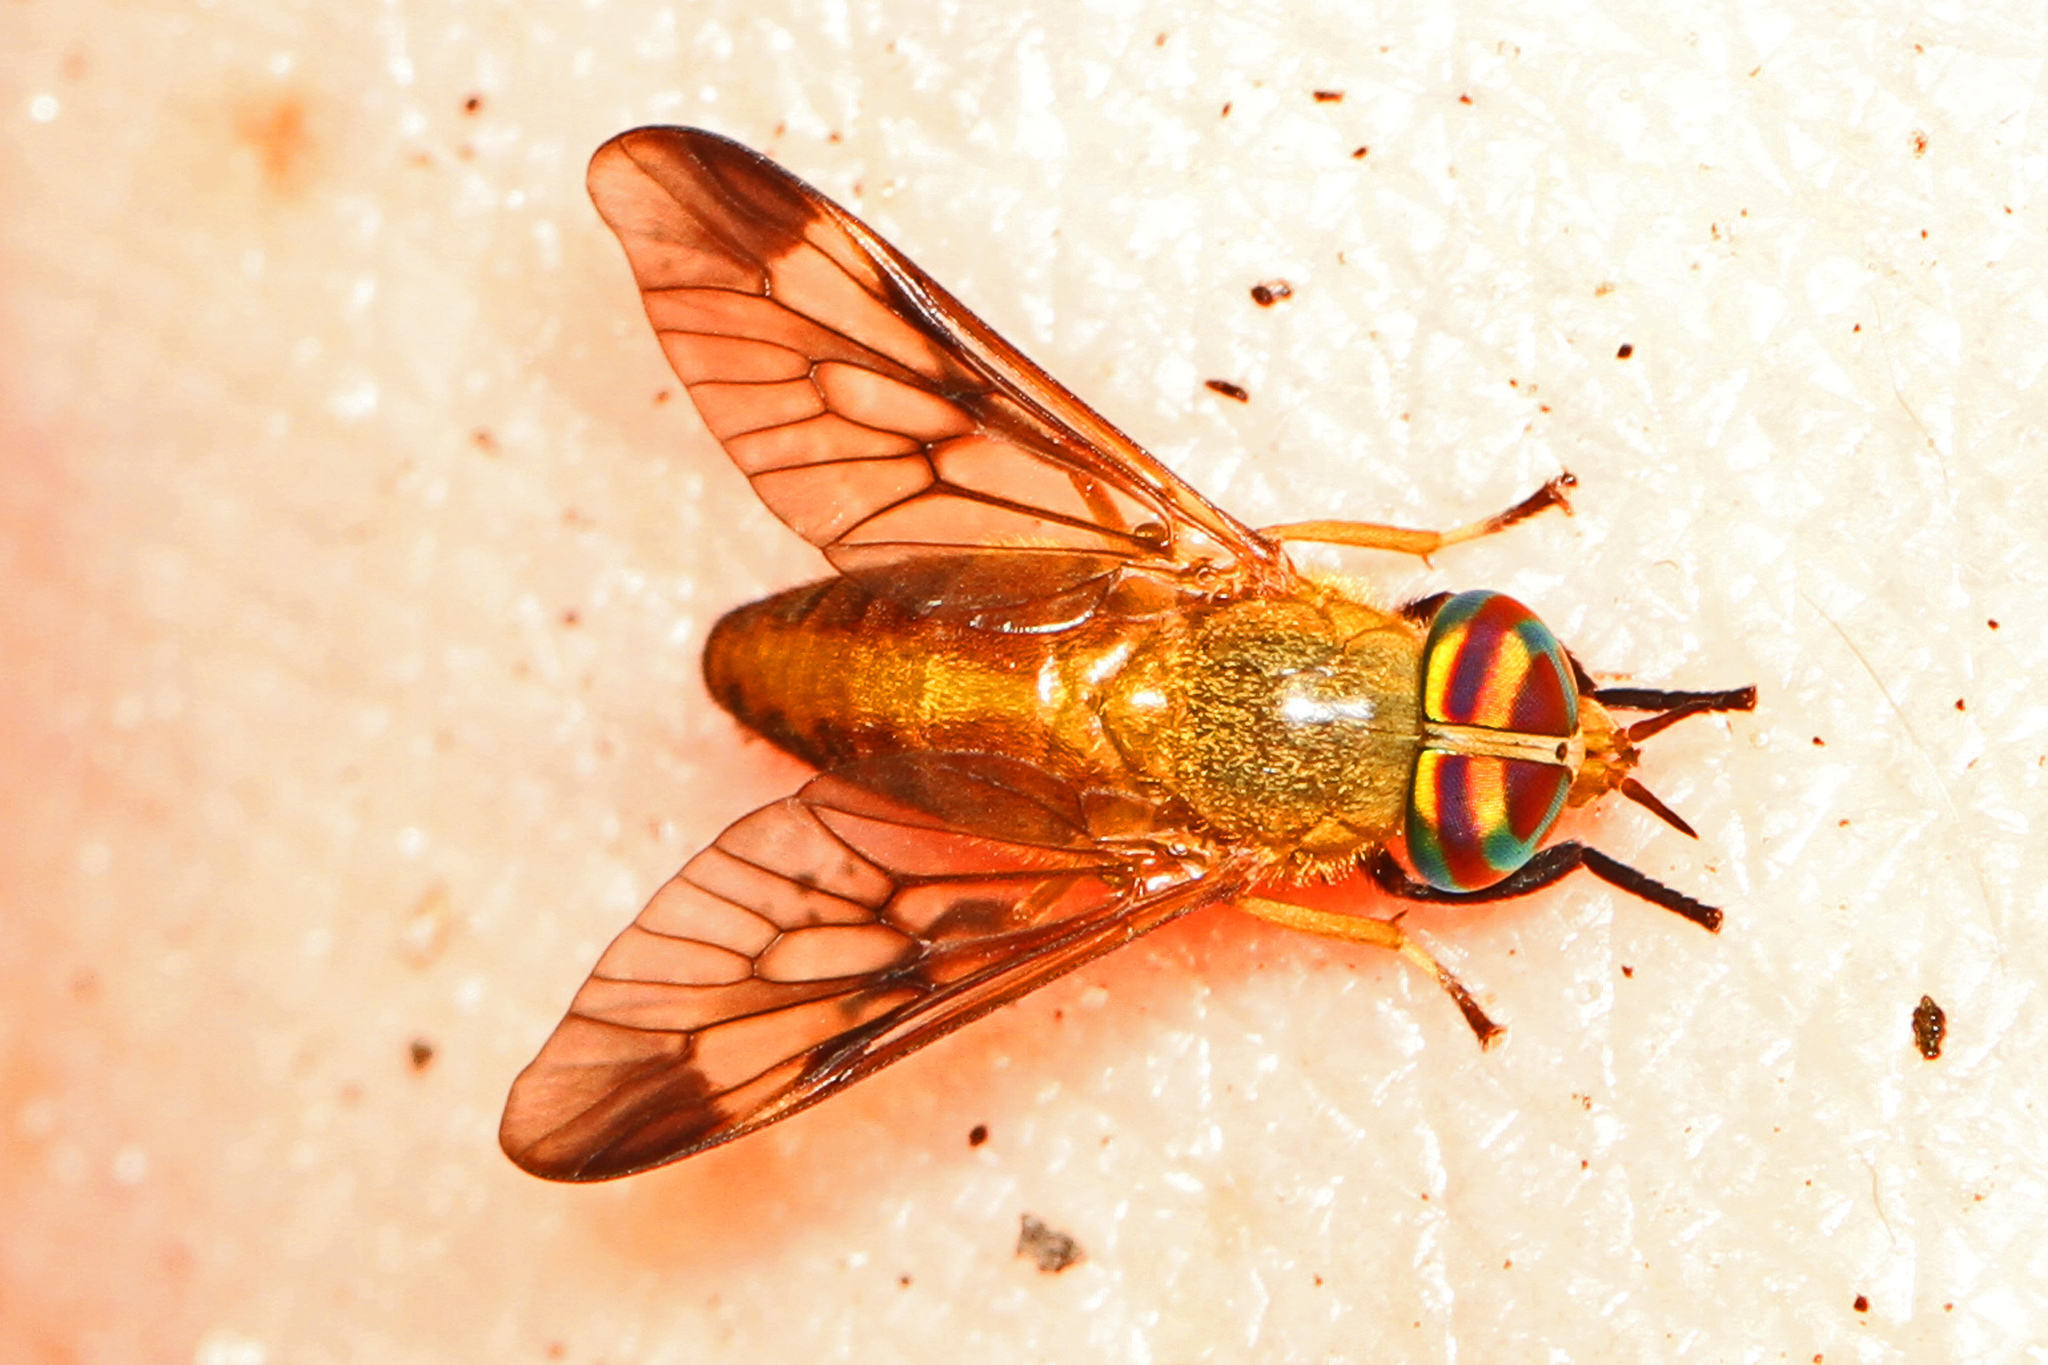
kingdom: Animalia
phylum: Arthropoda
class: Insecta
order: Diptera
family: Tabanidae
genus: Diachlorus
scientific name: Diachlorus ferrugatus
